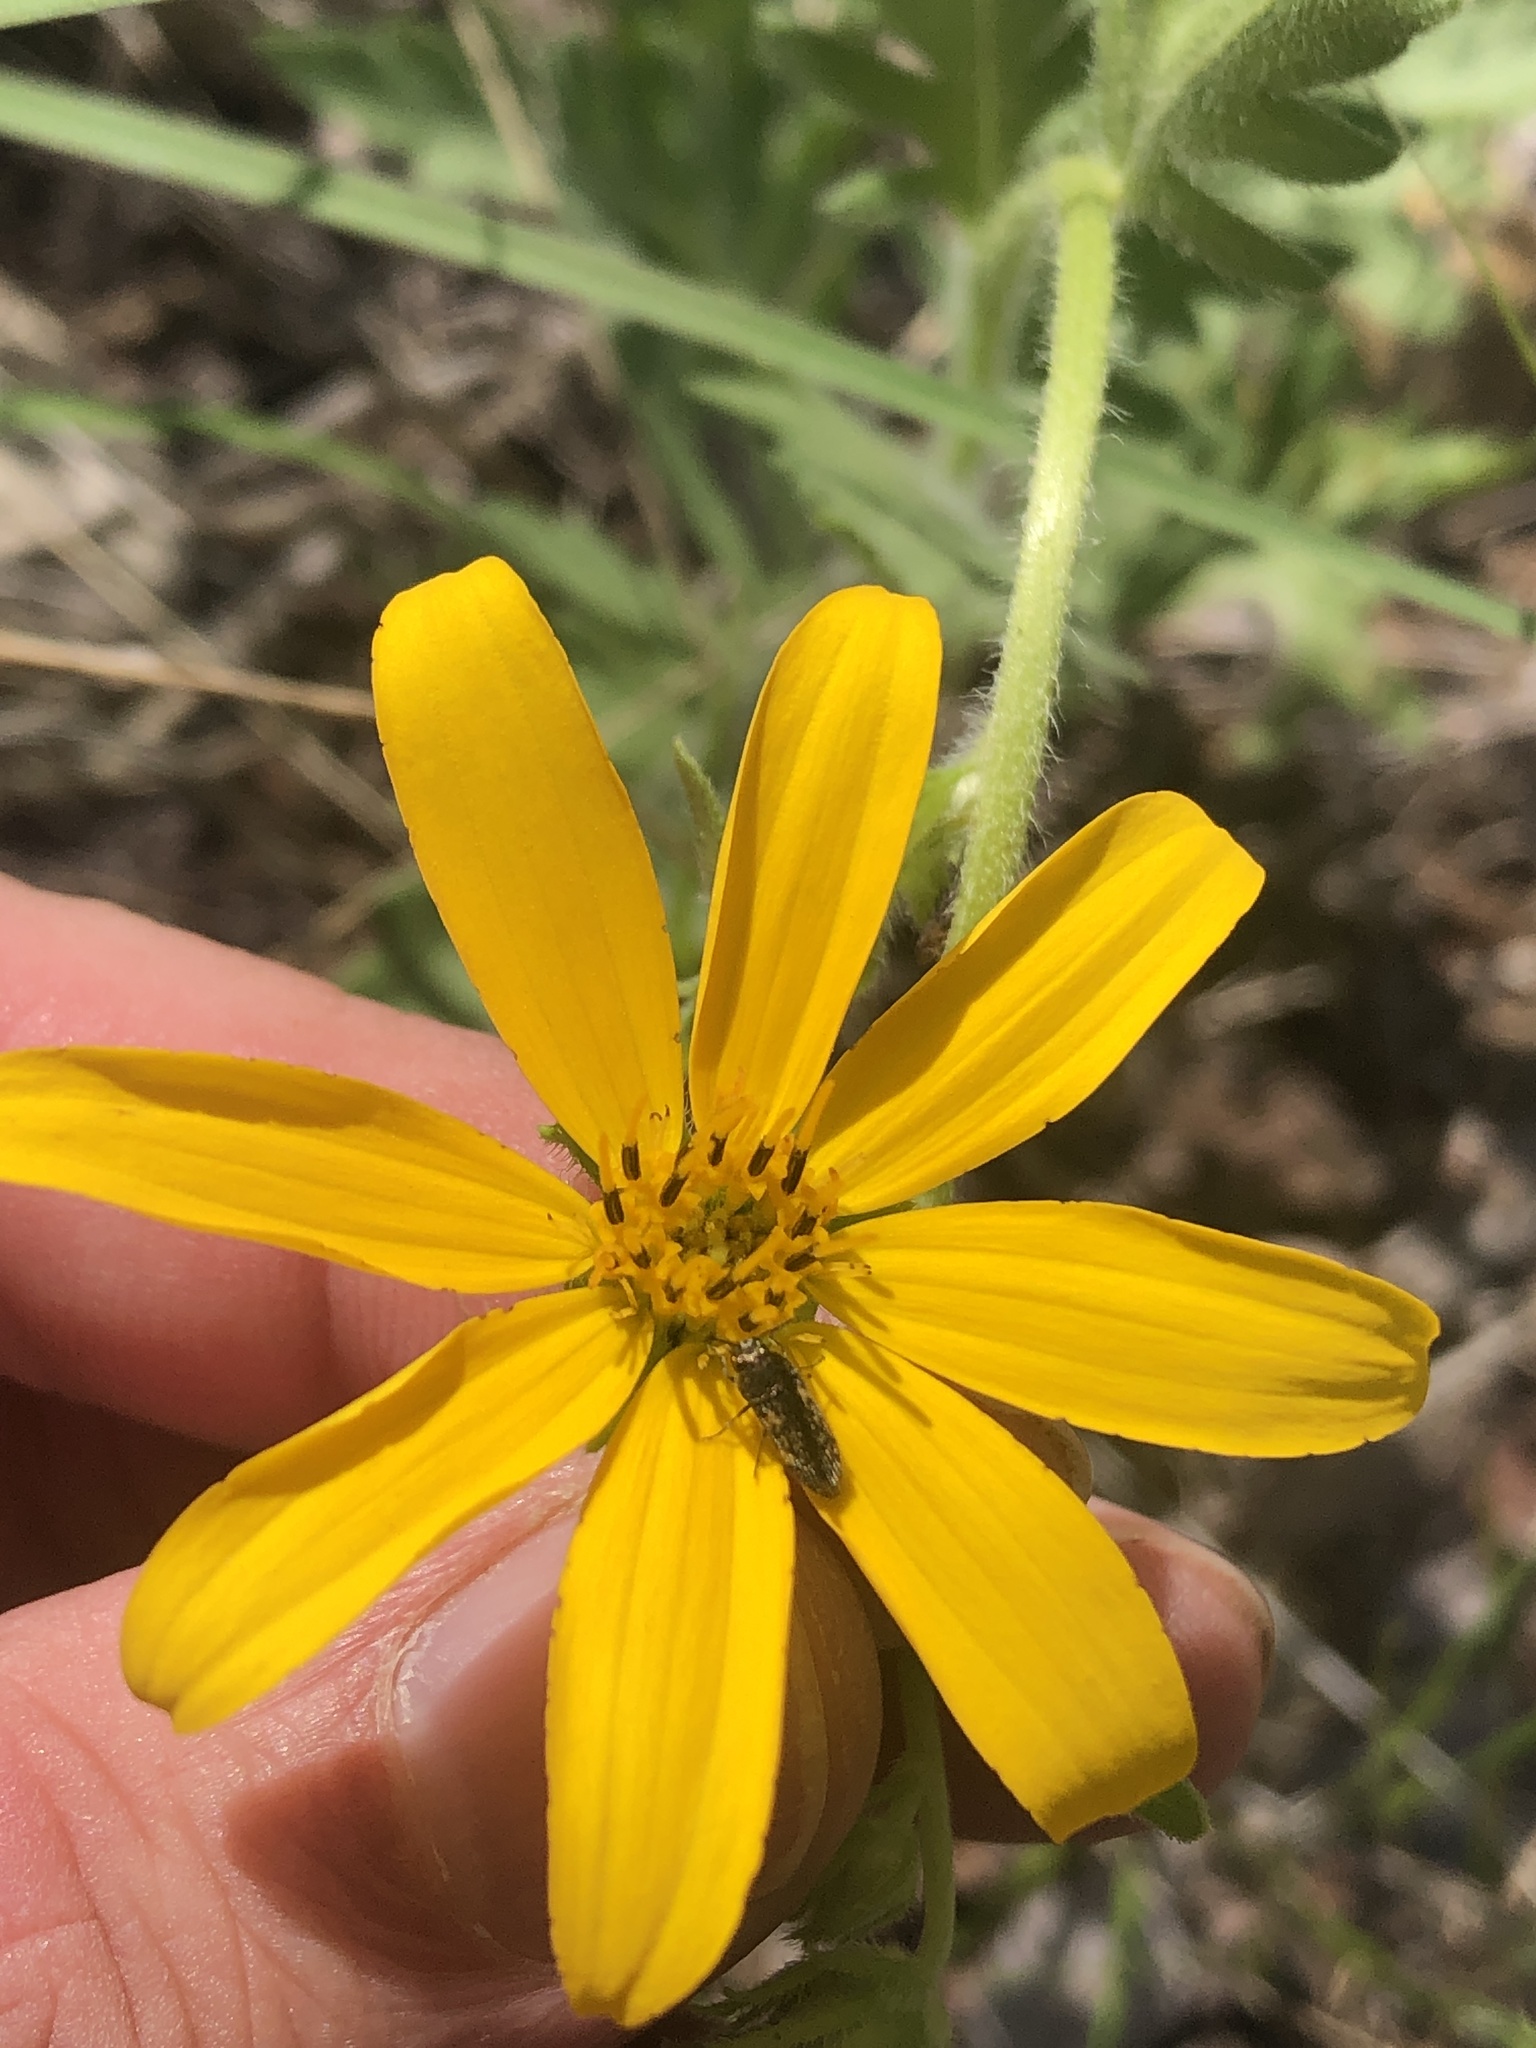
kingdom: Plantae
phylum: Tracheophyta
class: Magnoliopsida
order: Asterales
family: Asteraceae
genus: Engelmannia
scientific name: Engelmannia peristenia
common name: Engelmann's daisy
